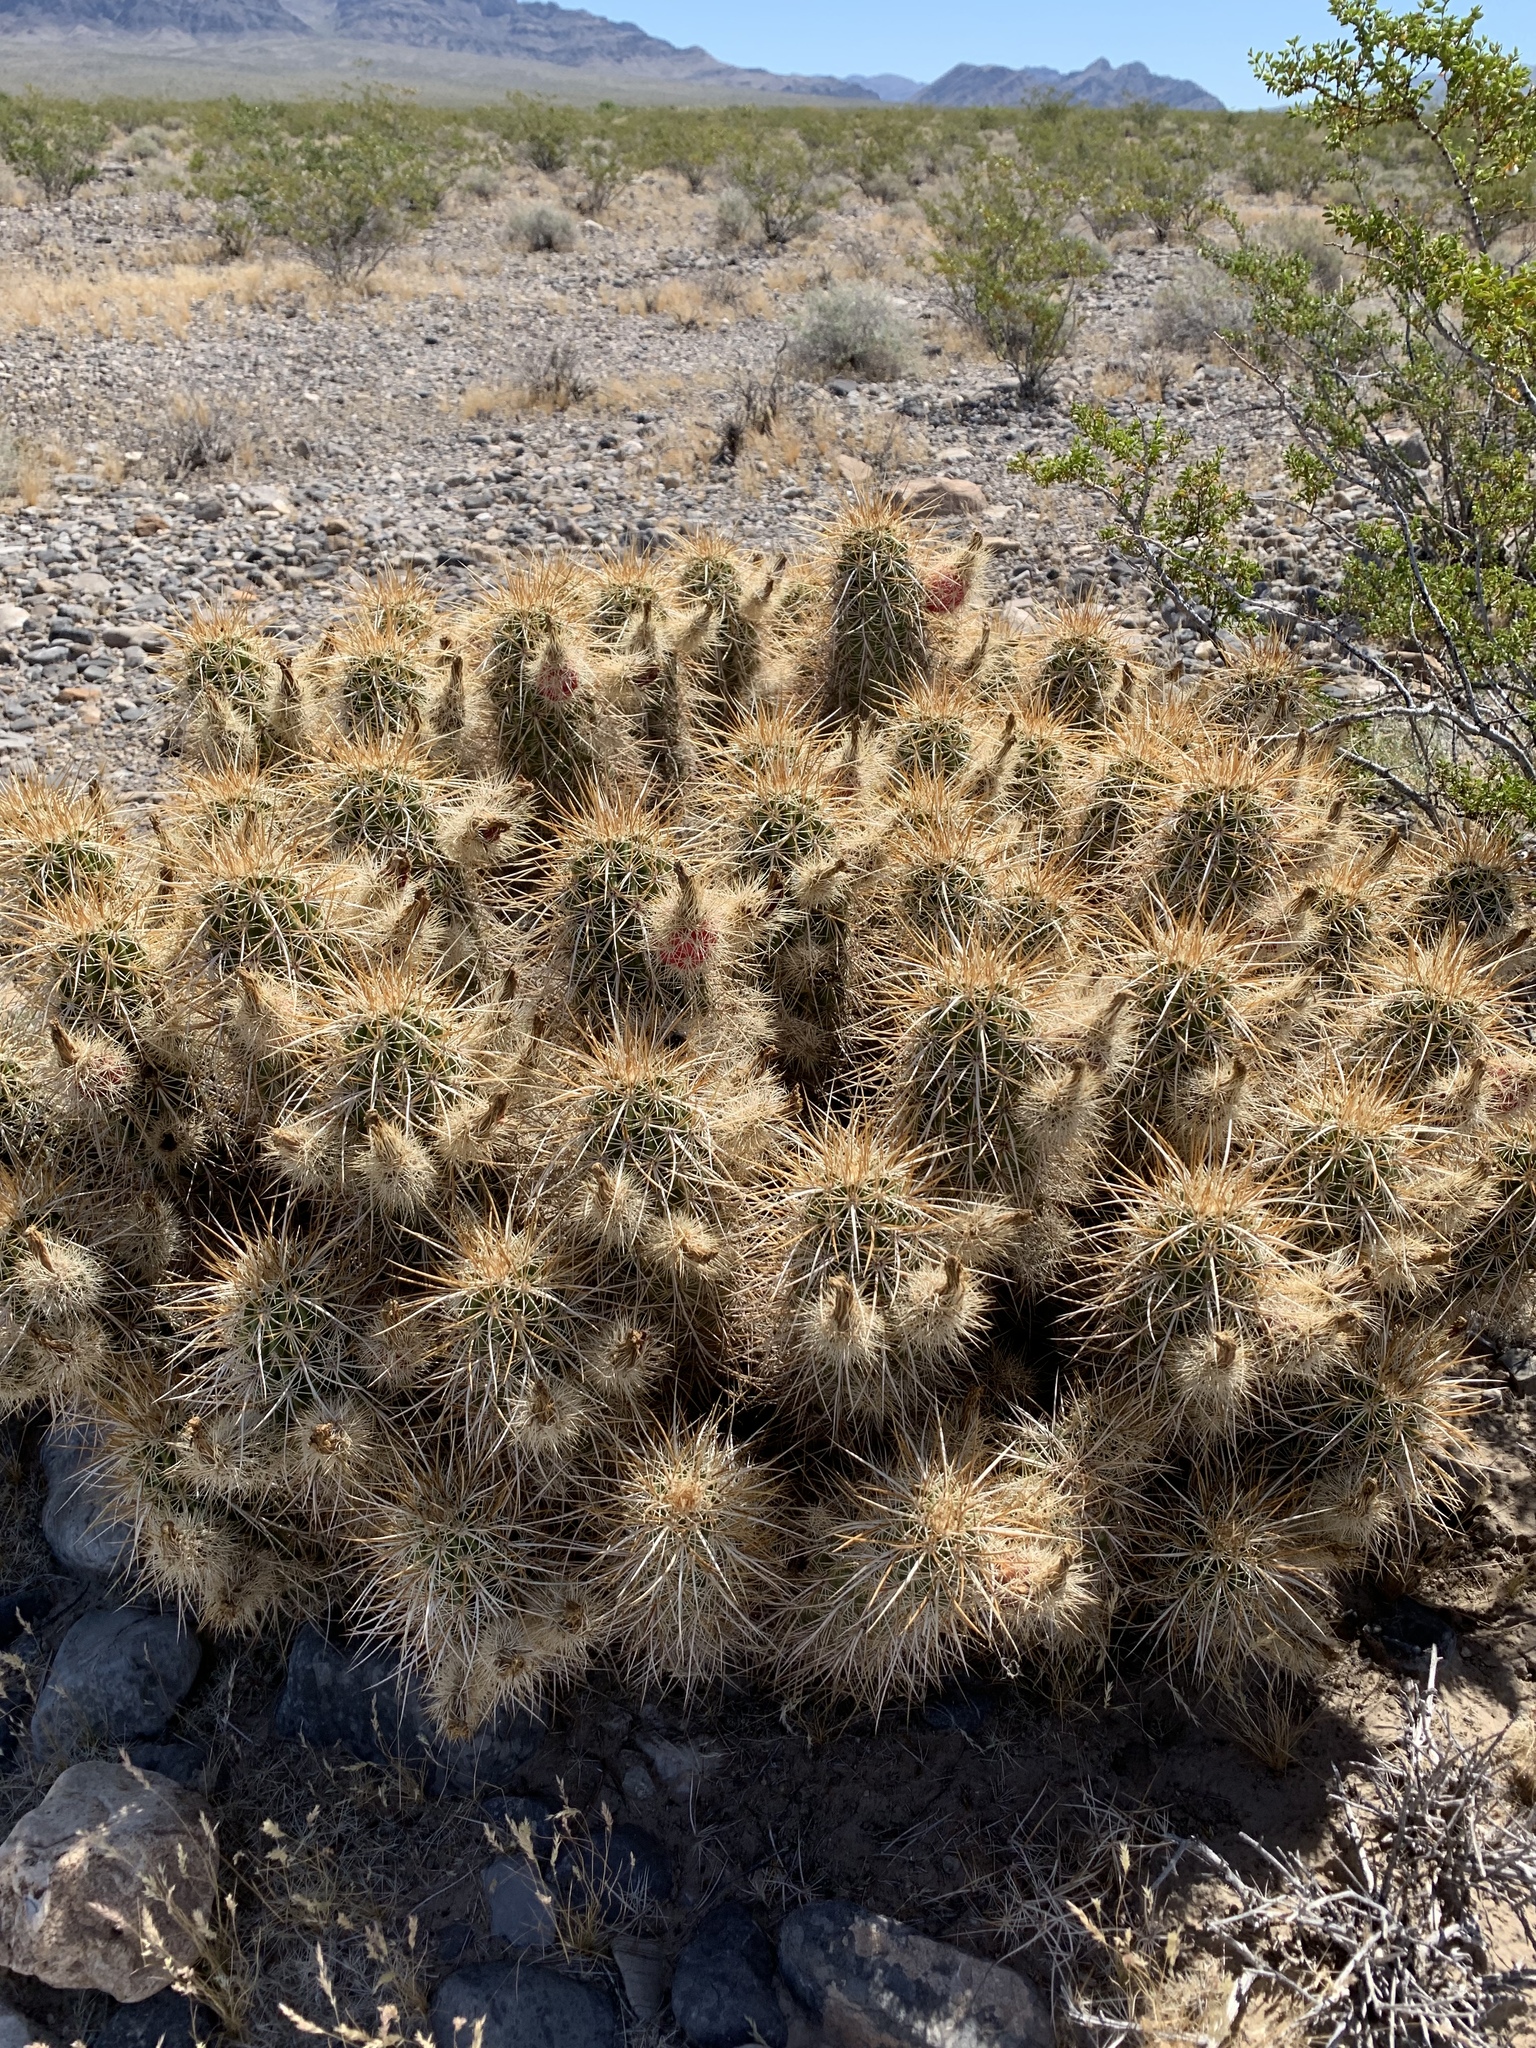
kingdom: Plantae
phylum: Tracheophyta
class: Magnoliopsida
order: Caryophyllales
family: Cactaceae
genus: Echinocereus
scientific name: Echinocereus engelmannii
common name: Engelmann's hedgehog cactus
